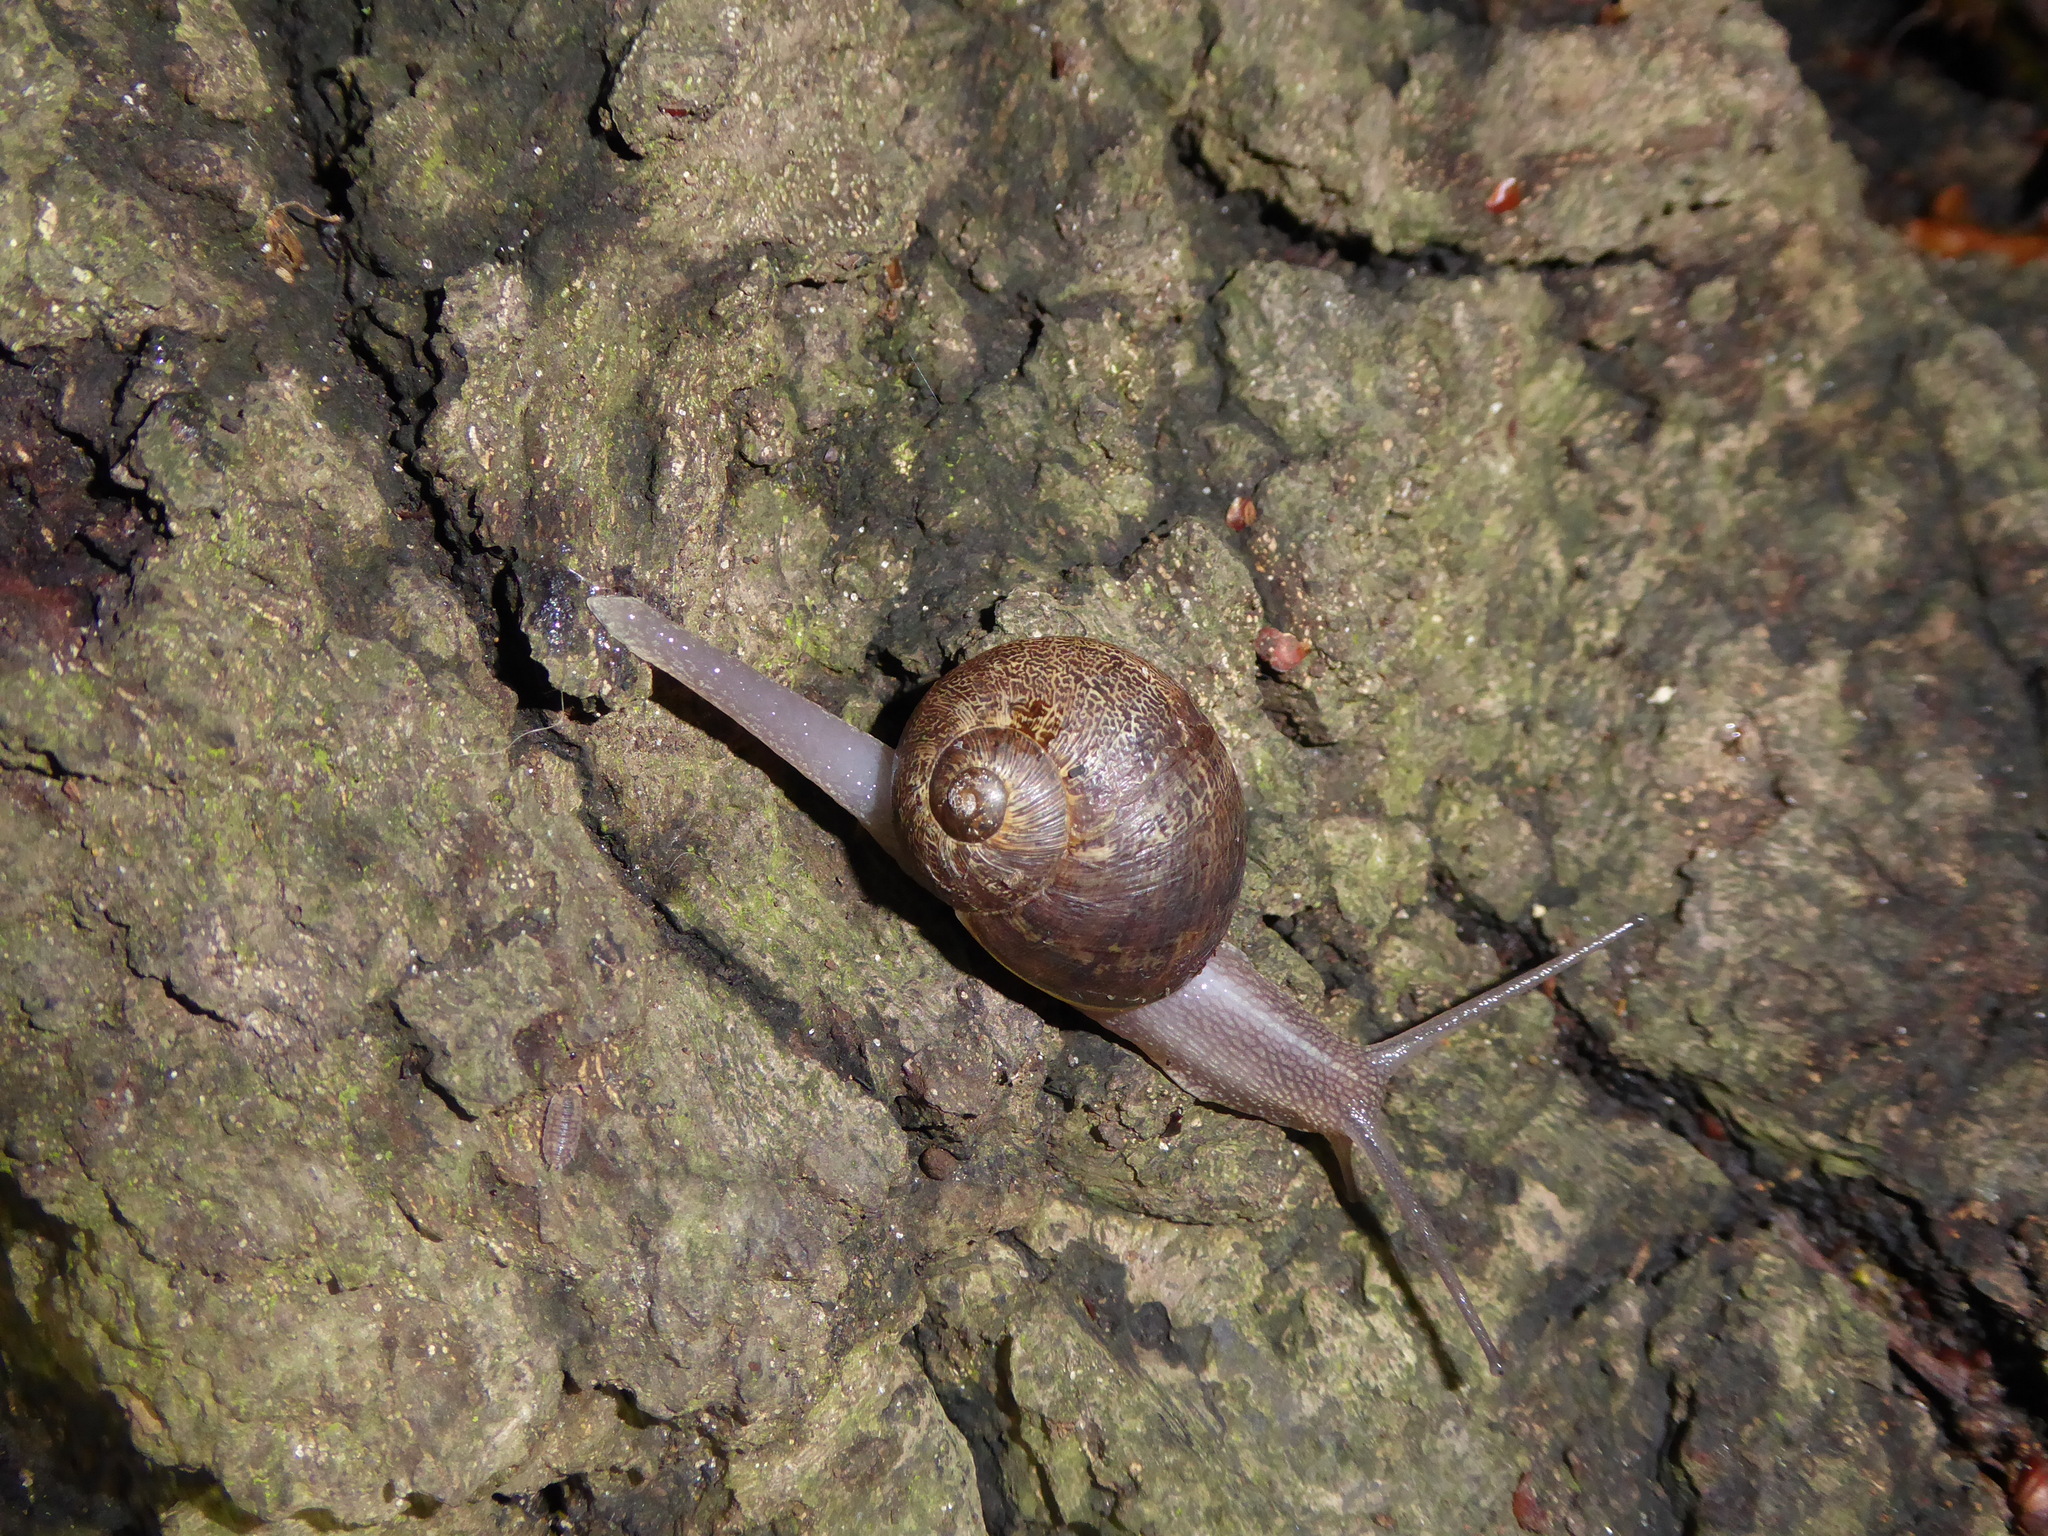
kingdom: Animalia
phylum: Mollusca
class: Gastropoda
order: Stylommatophora
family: Helicidae
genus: Cornu
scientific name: Cornu aspersum
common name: Brown garden snail
